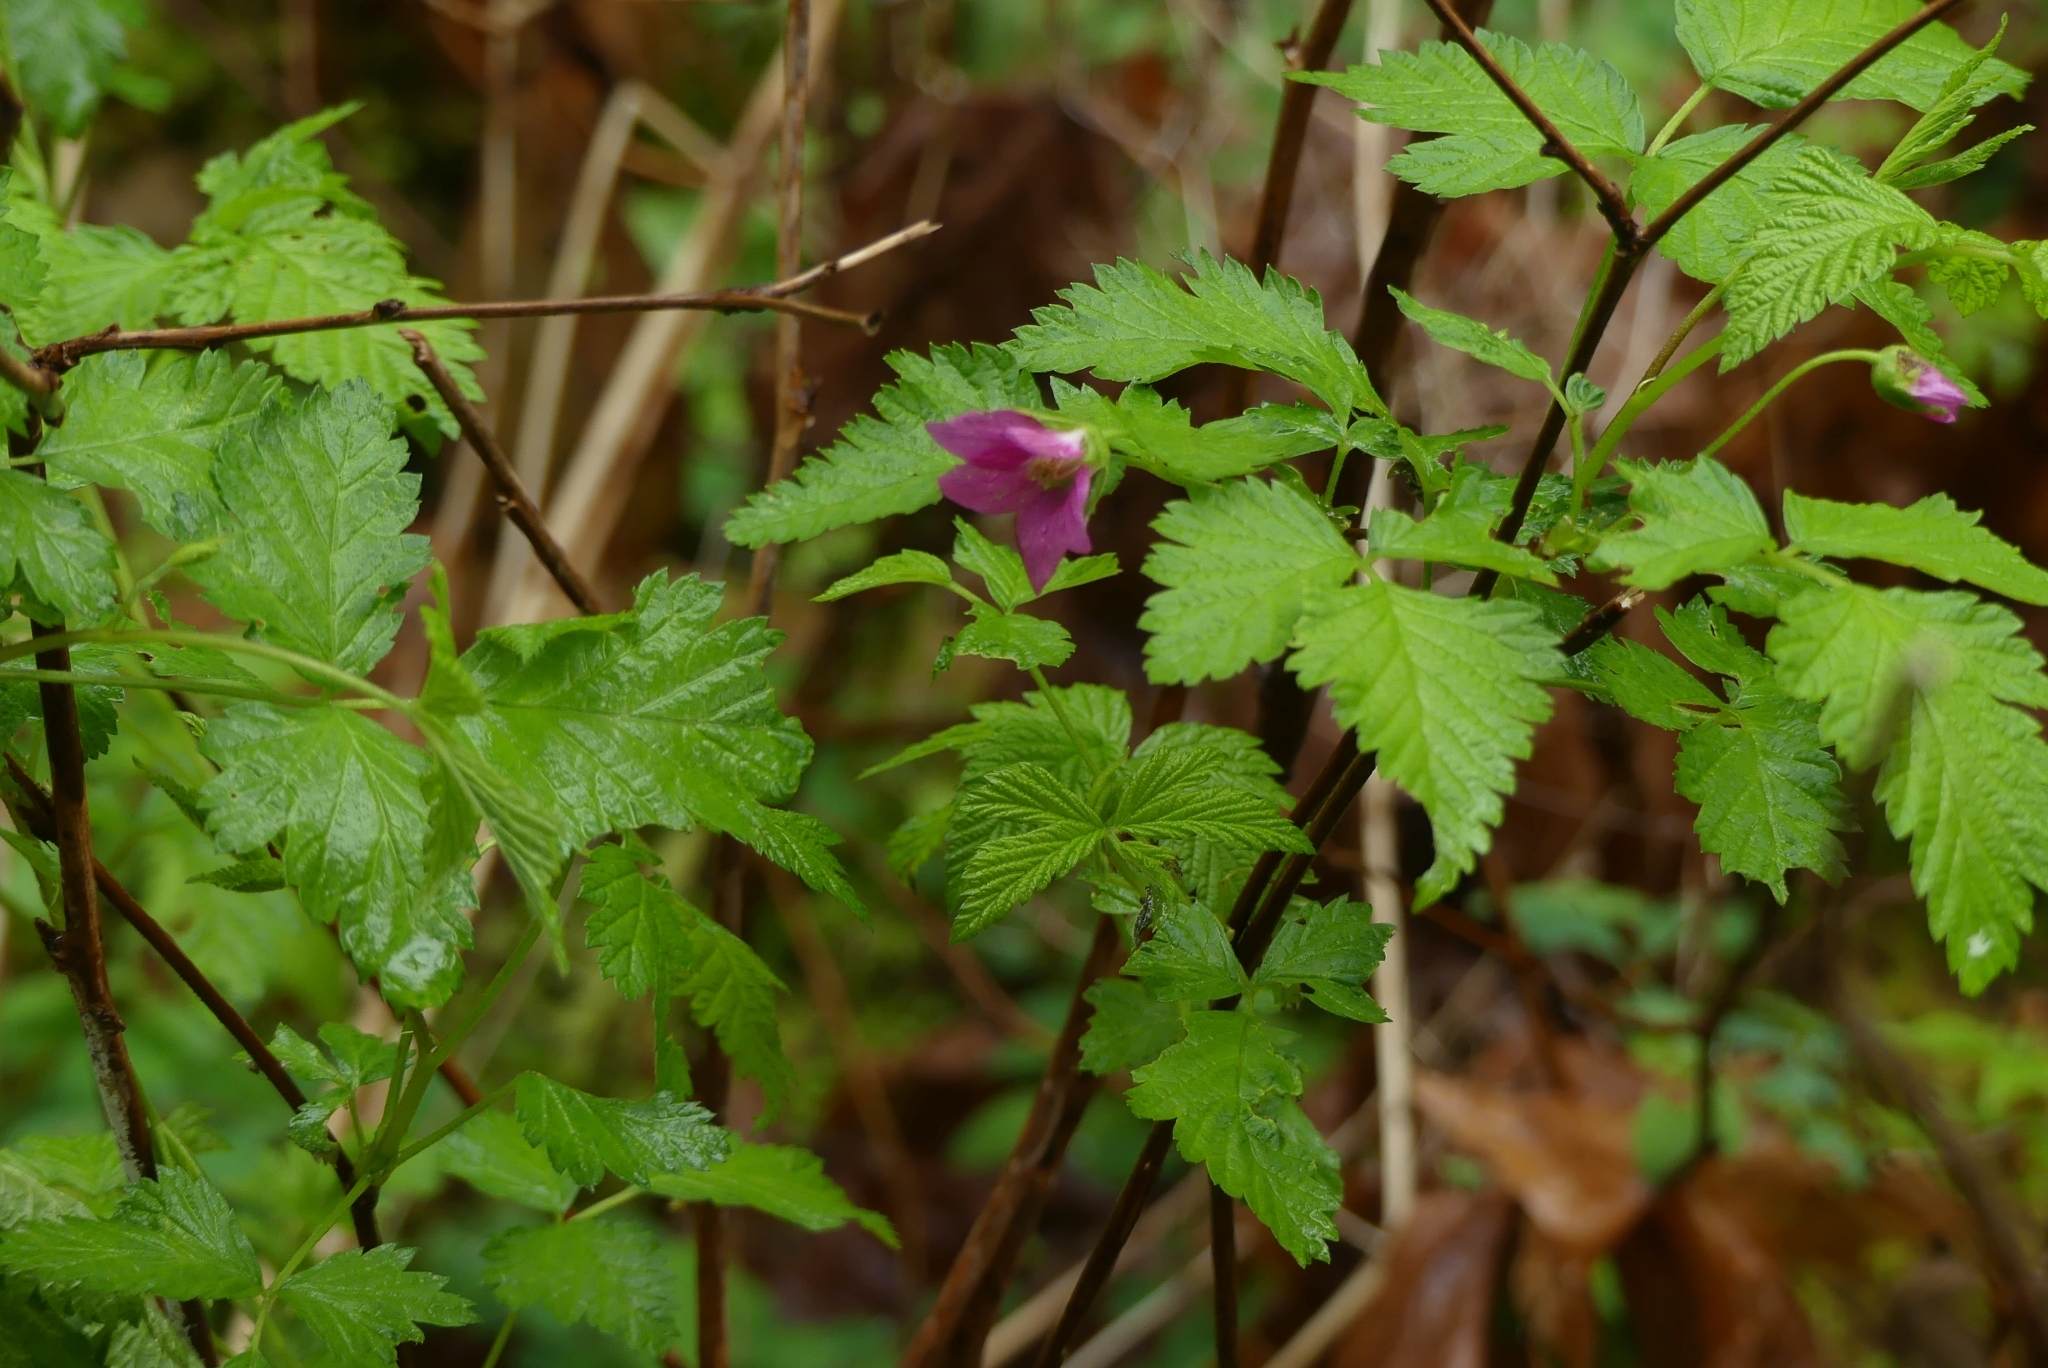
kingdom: Plantae
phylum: Tracheophyta
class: Magnoliopsida
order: Rosales
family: Rosaceae
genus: Rubus
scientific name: Rubus spectabilis
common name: Salmonberry
